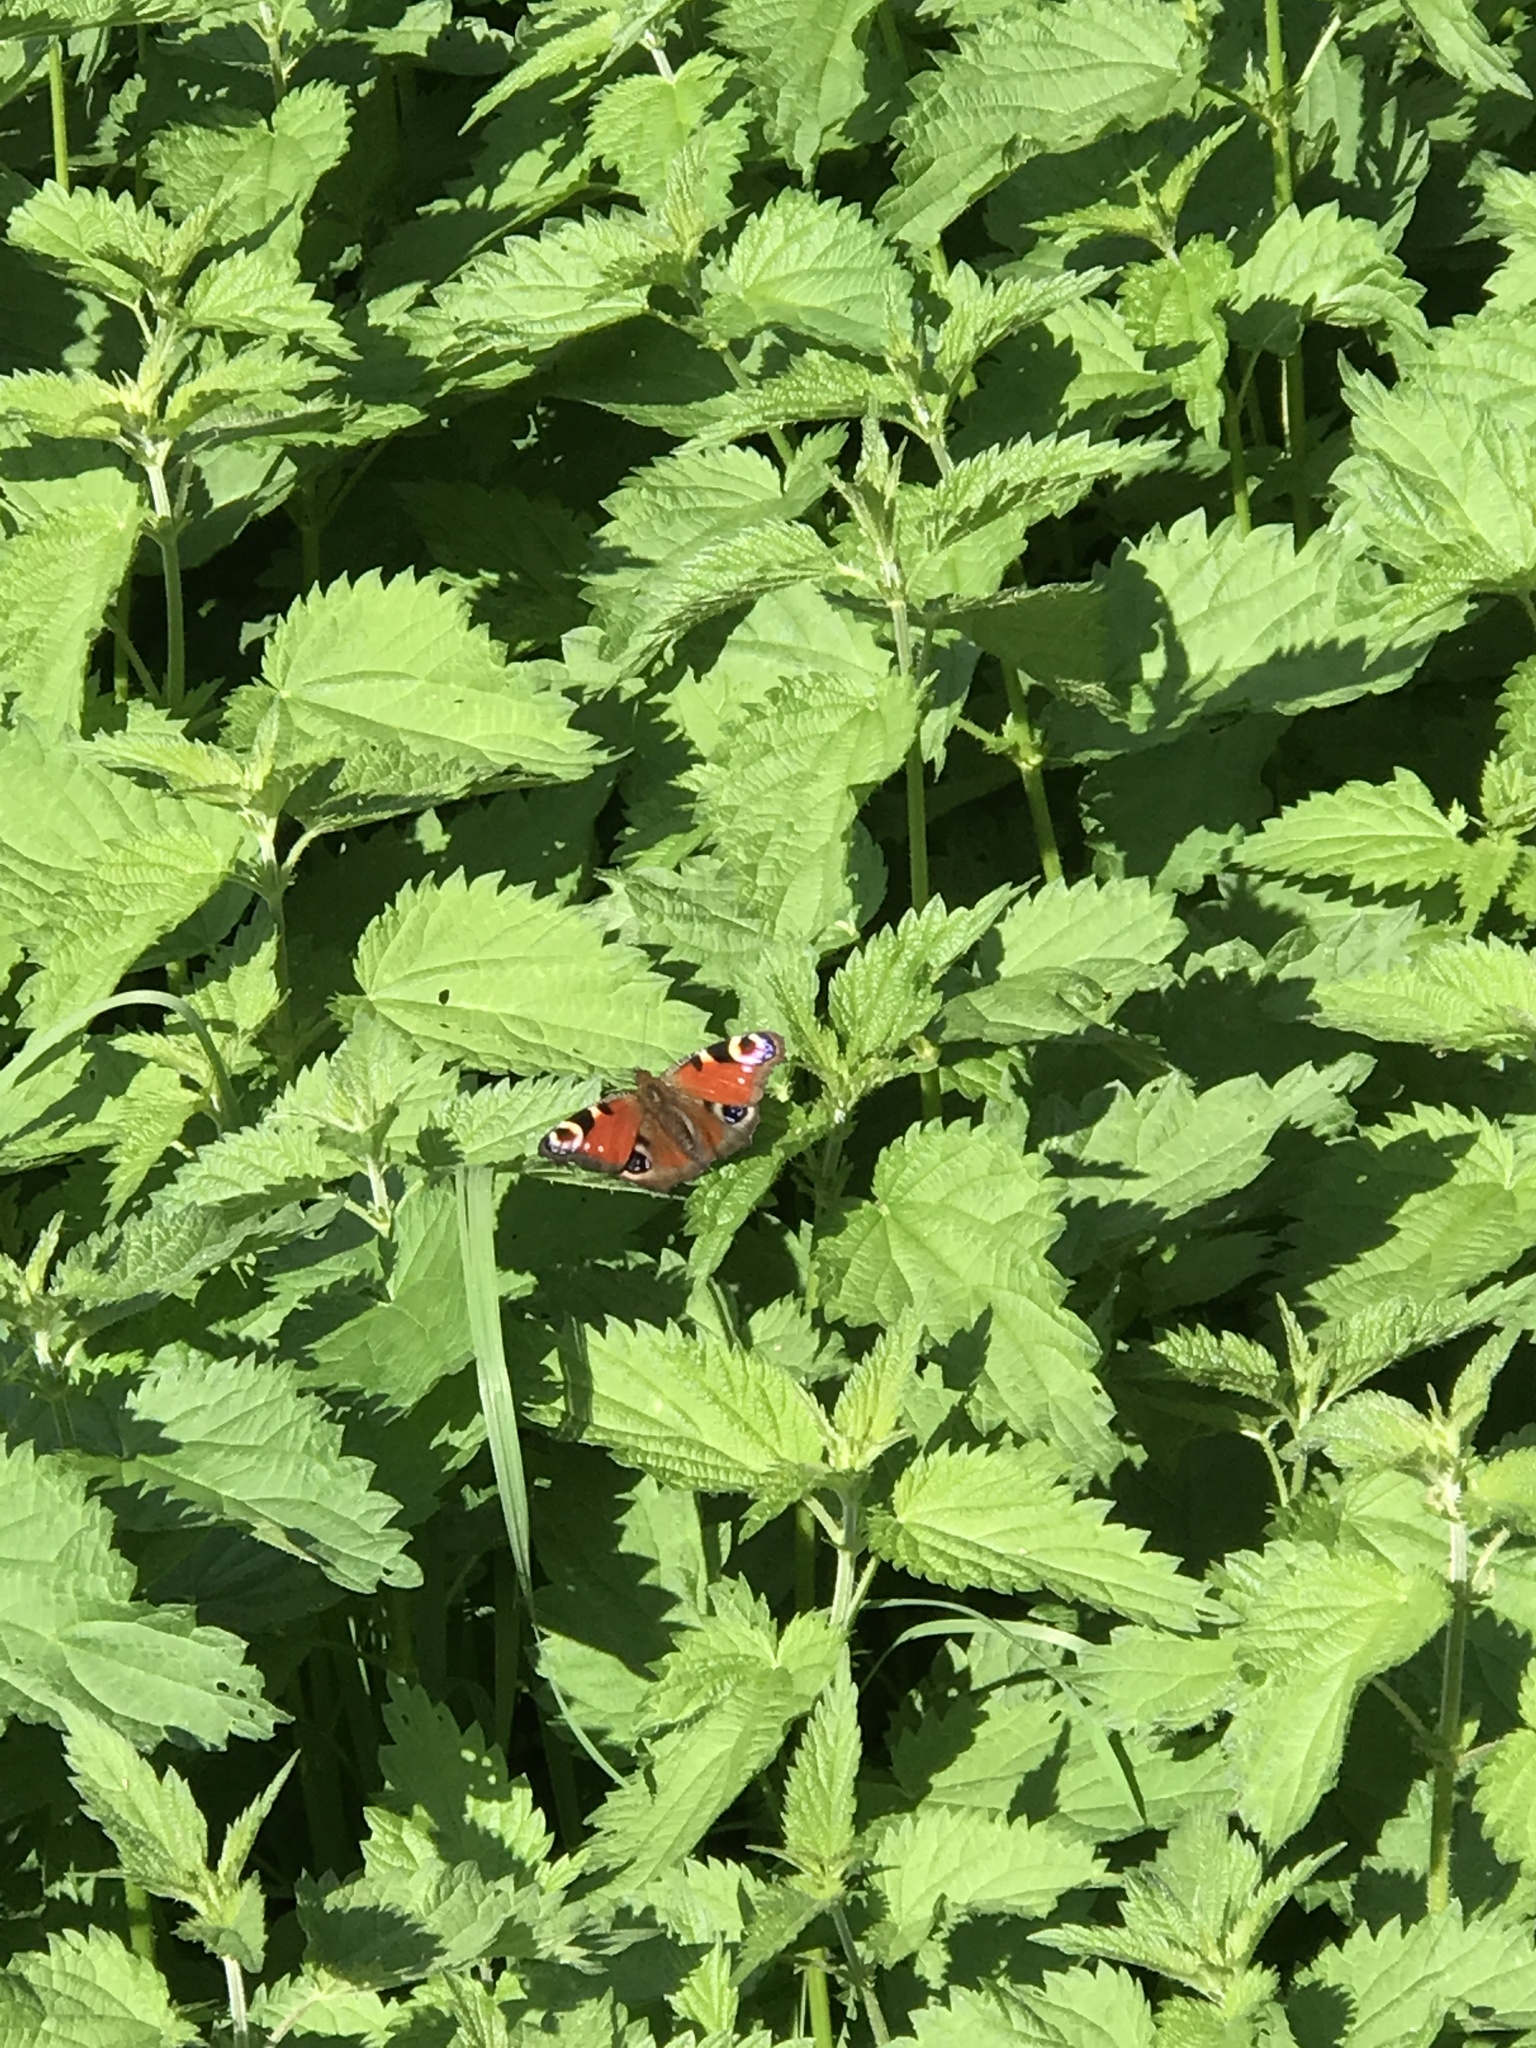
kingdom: Animalia
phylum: Arthropoda
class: Insecta
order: Lepidoptera
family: Nymphalidae
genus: Aglais
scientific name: Aglais io
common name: Peacock
